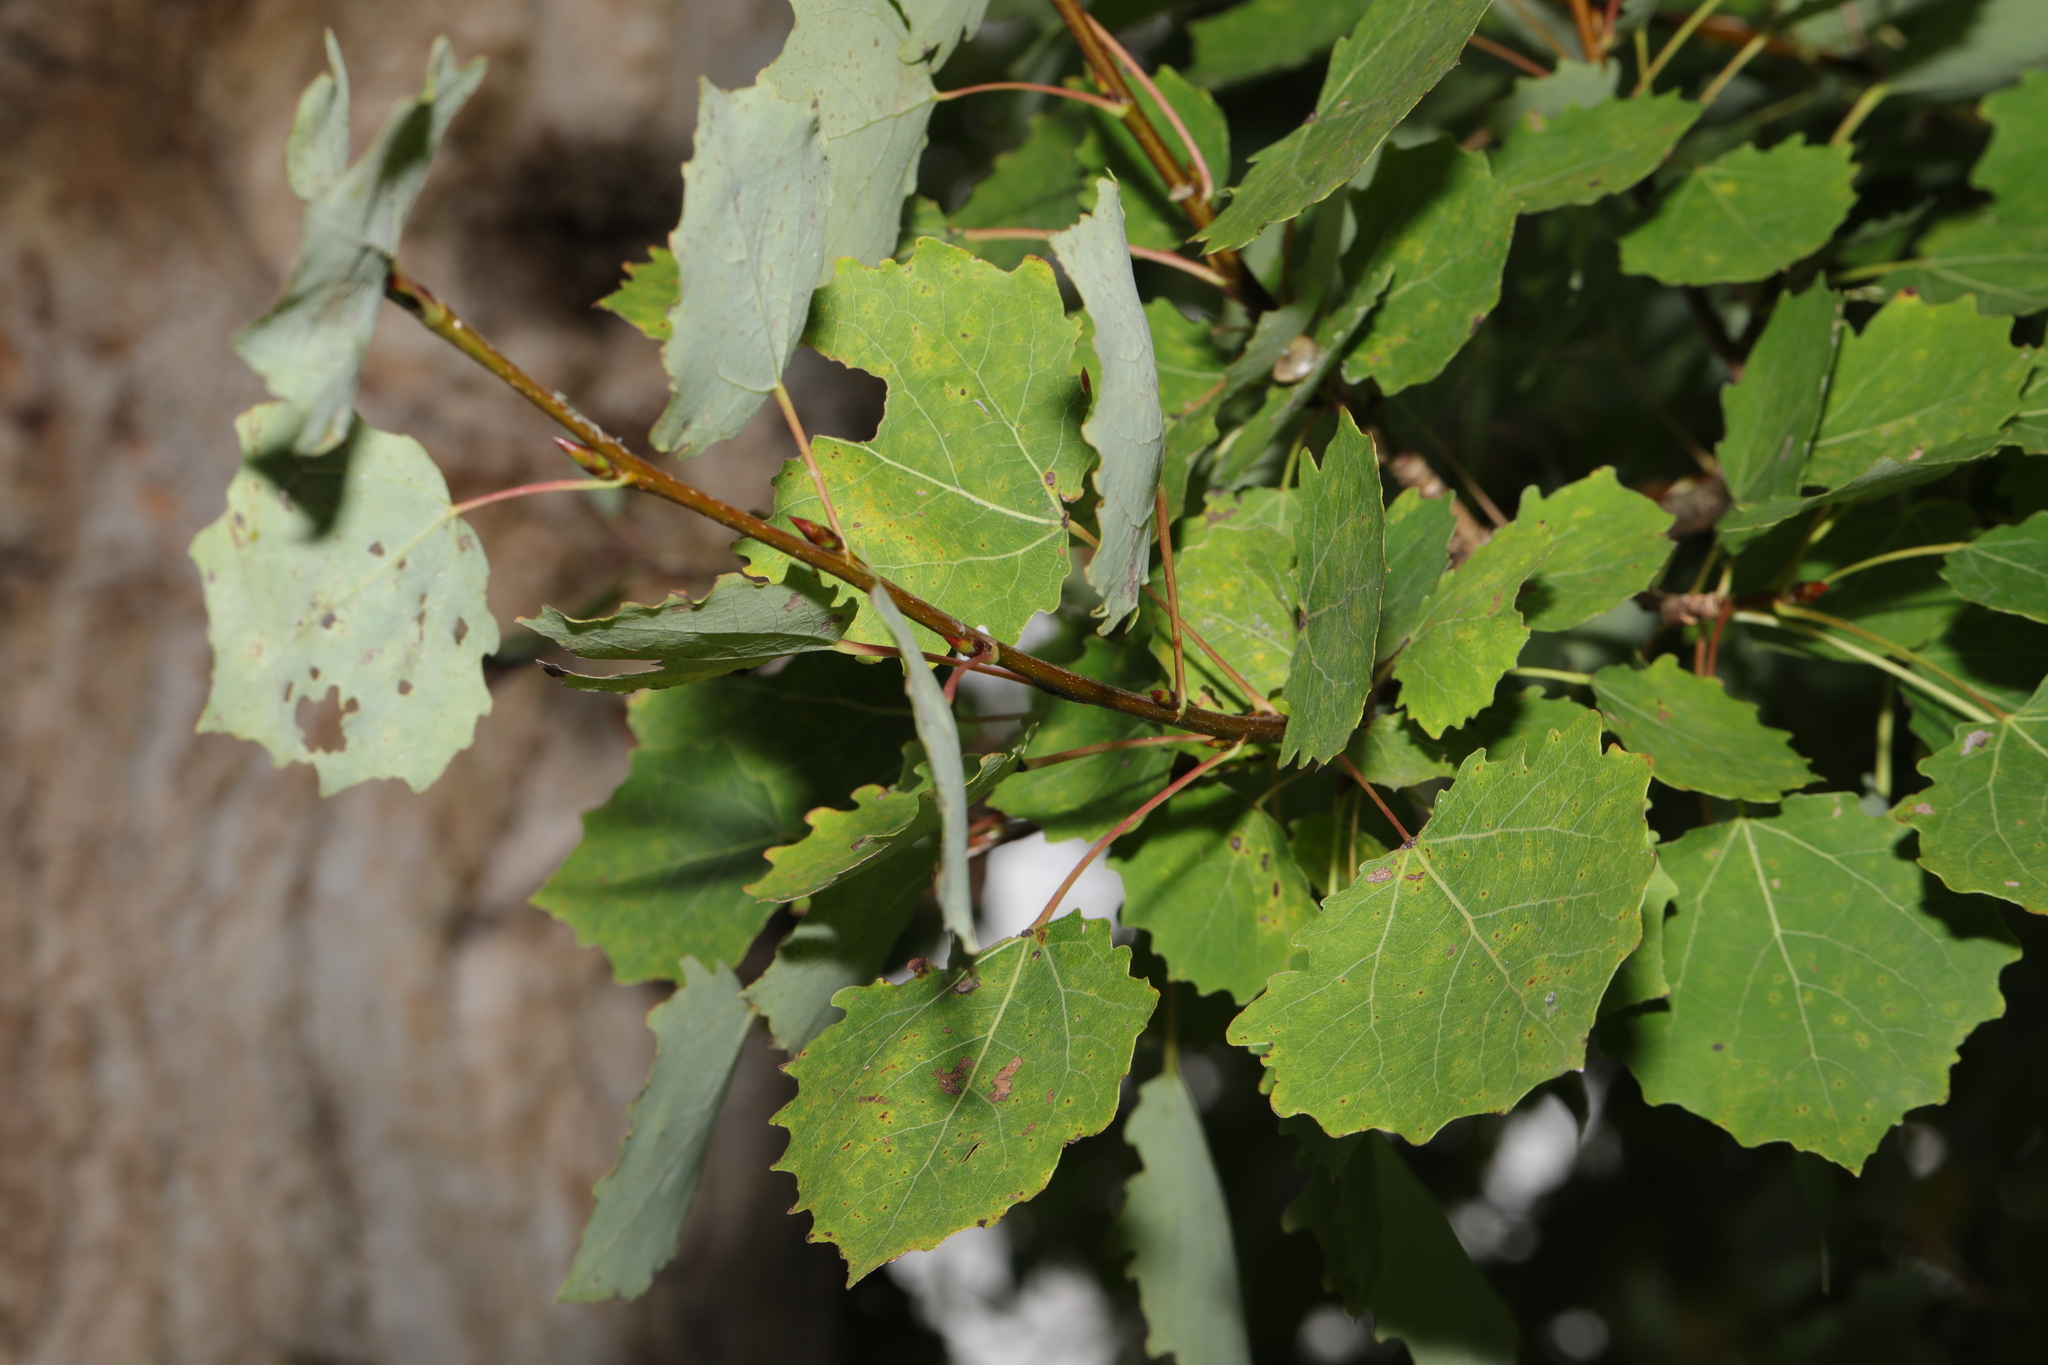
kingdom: Plantae
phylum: Tracheophyta
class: Magnoliopsida
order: Malpighiales
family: Salicaceae
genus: Populus
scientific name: Populus tremula
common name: European aspen
